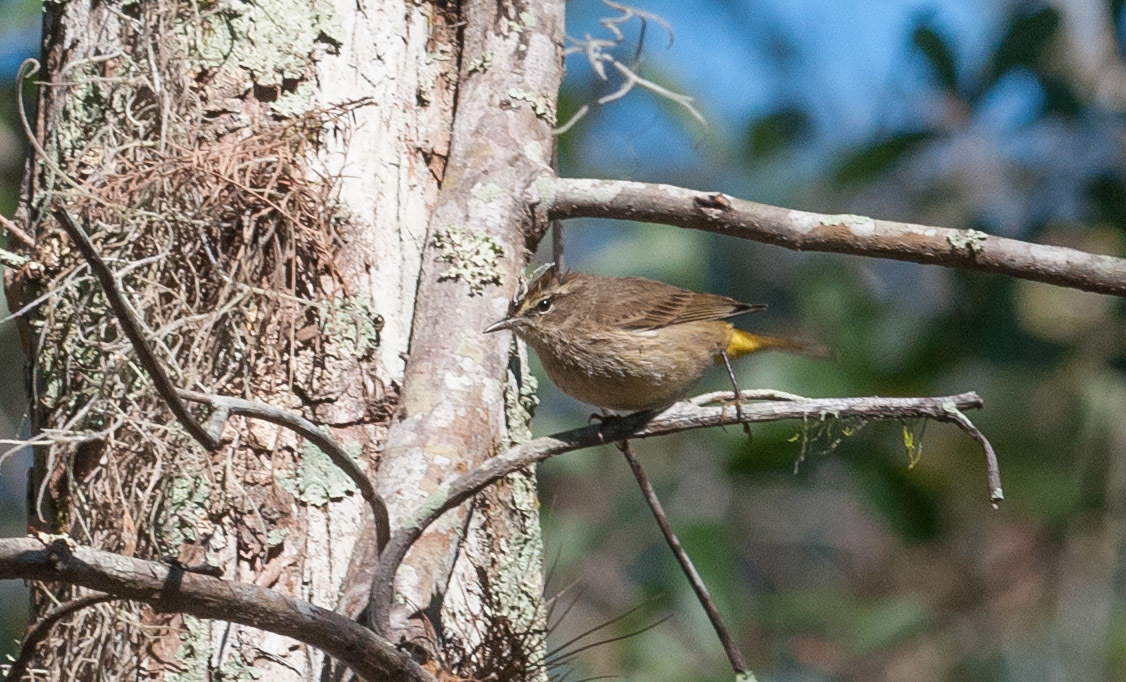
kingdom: Animalia
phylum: Chordata
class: Aves
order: Passeriformes
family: Parulidae
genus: Setophaga
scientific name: Setophaga palmarum
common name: Palm warbler
